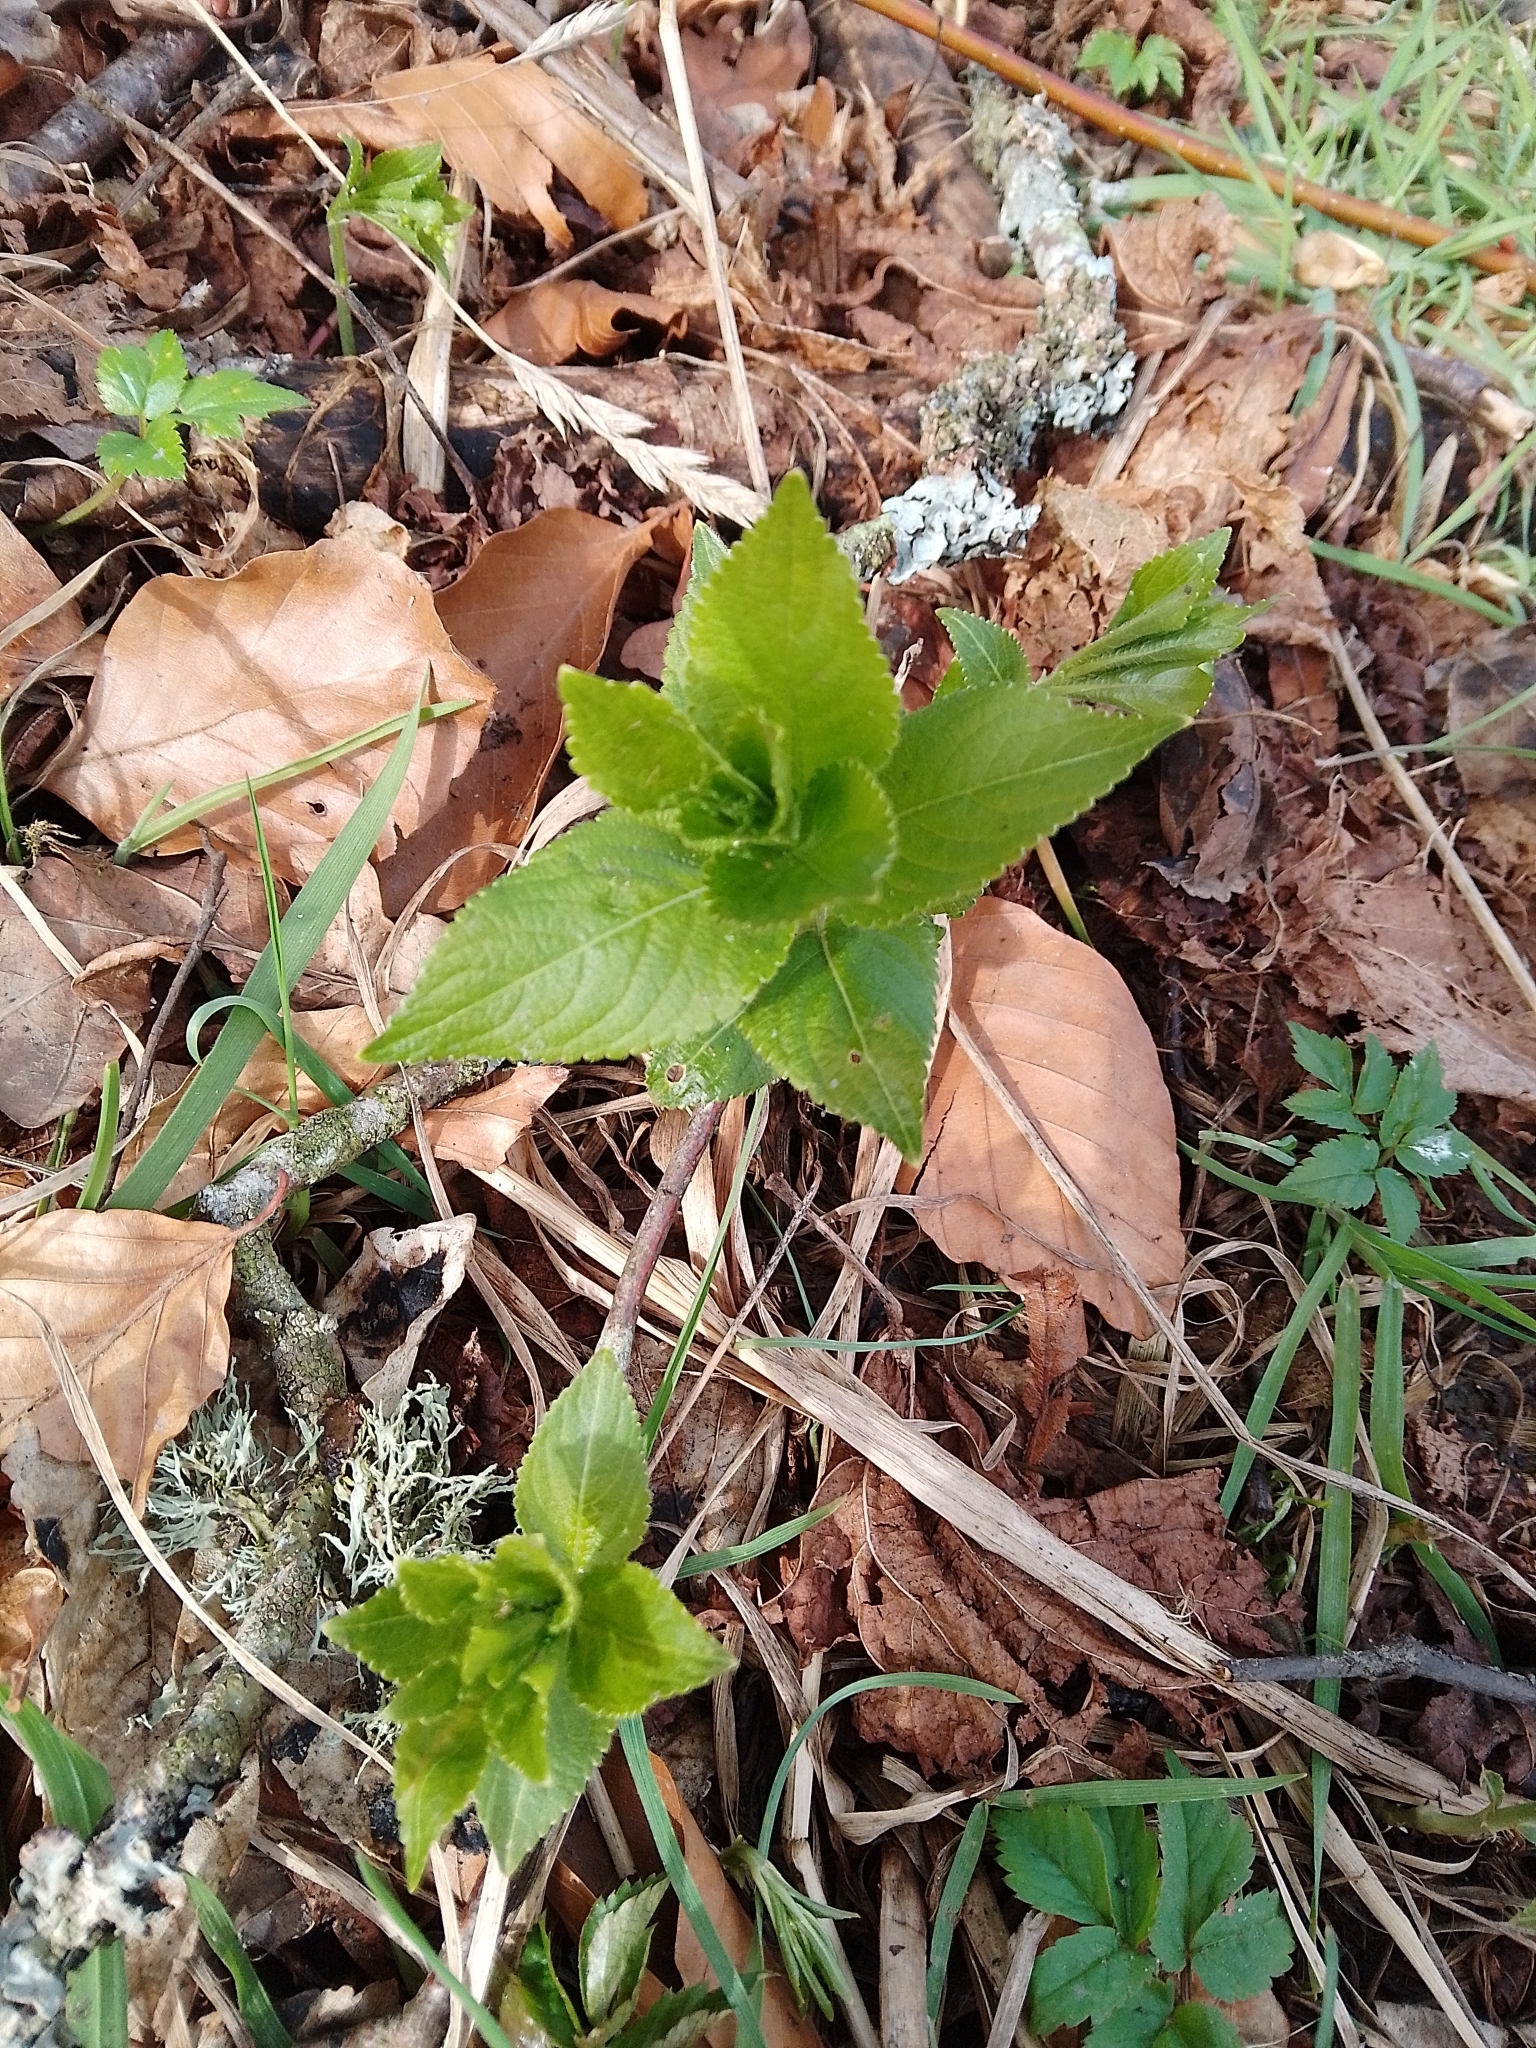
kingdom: Plantae
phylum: Tracheophyta
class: Magnoliopsida
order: Malpighiales
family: Euphorbiaceae
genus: Mercurialis
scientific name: Mercurialis perennis
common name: Dog mercury
